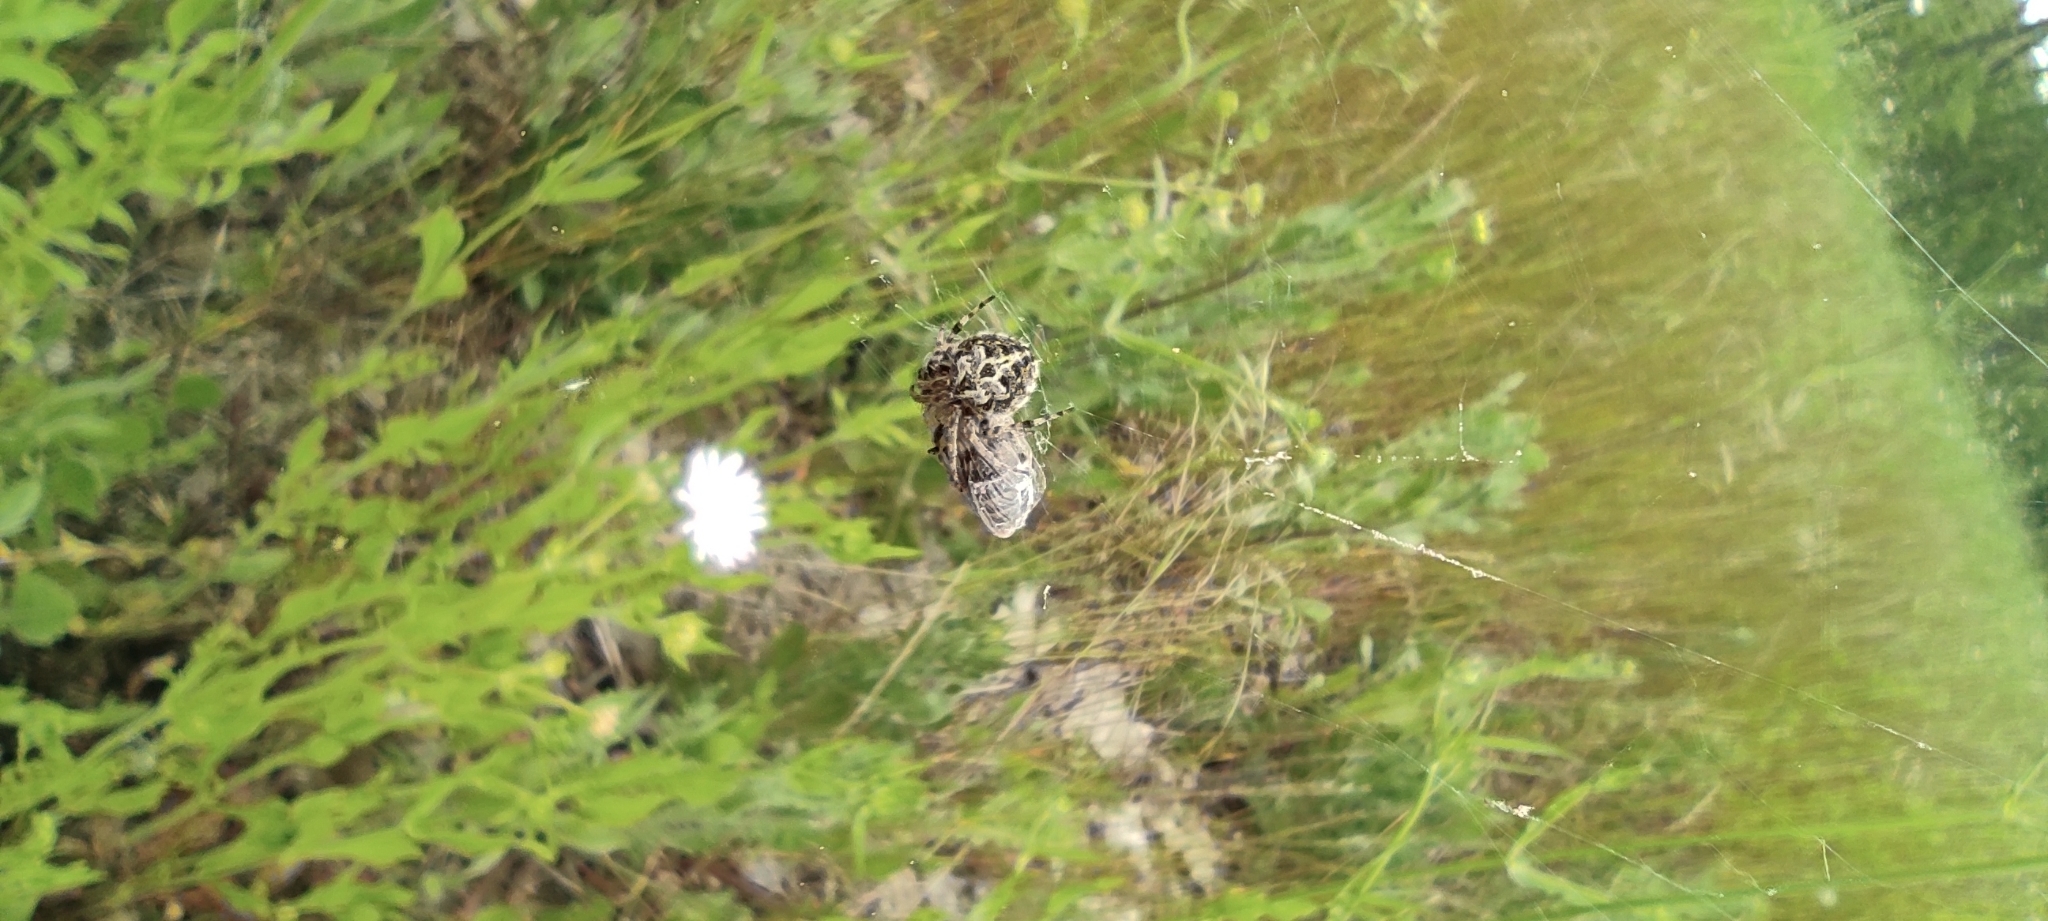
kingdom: Animalia
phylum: Arthropoda
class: Arachnida
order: Araneae
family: Araneidae
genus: Agalenatea
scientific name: Agalenatea redii
